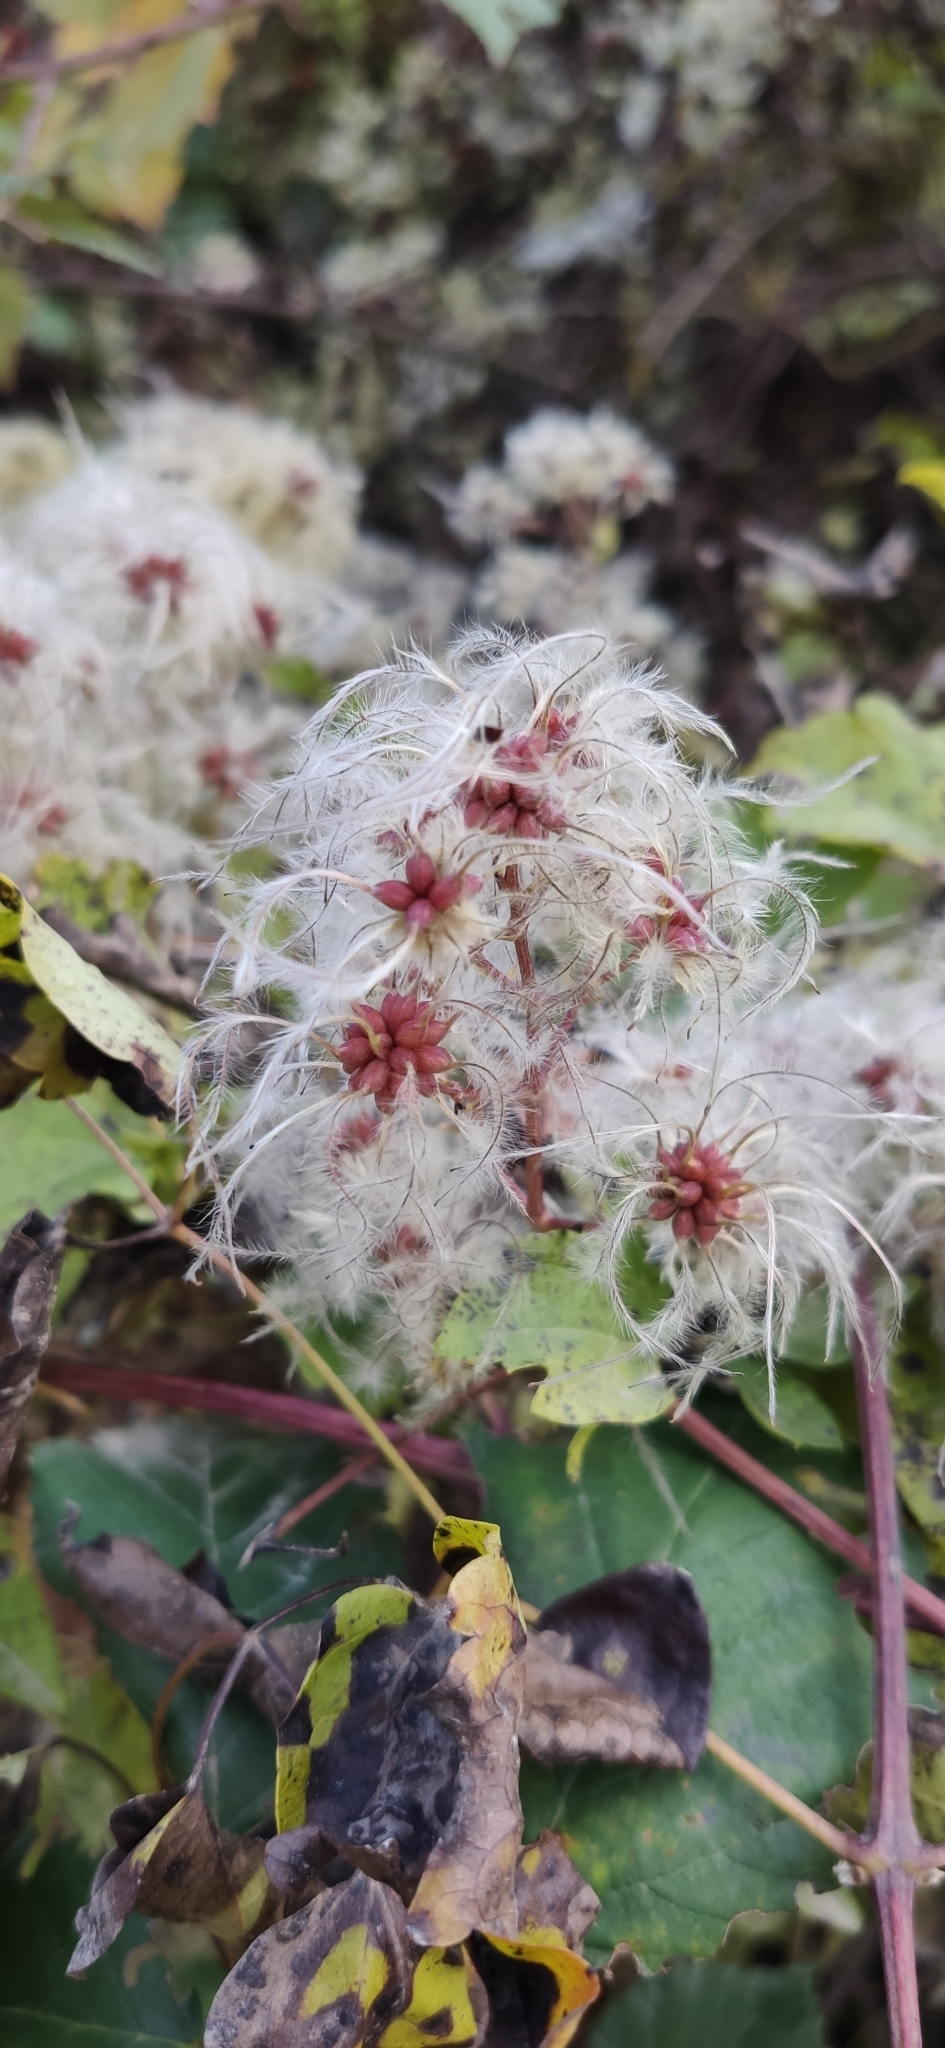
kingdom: Plantae
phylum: Tracheophyta
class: Magnoliopsida
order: Ranunculales
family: Ranunculaceae
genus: Clematis
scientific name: Clematis vitalba
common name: Evergreen clematis
